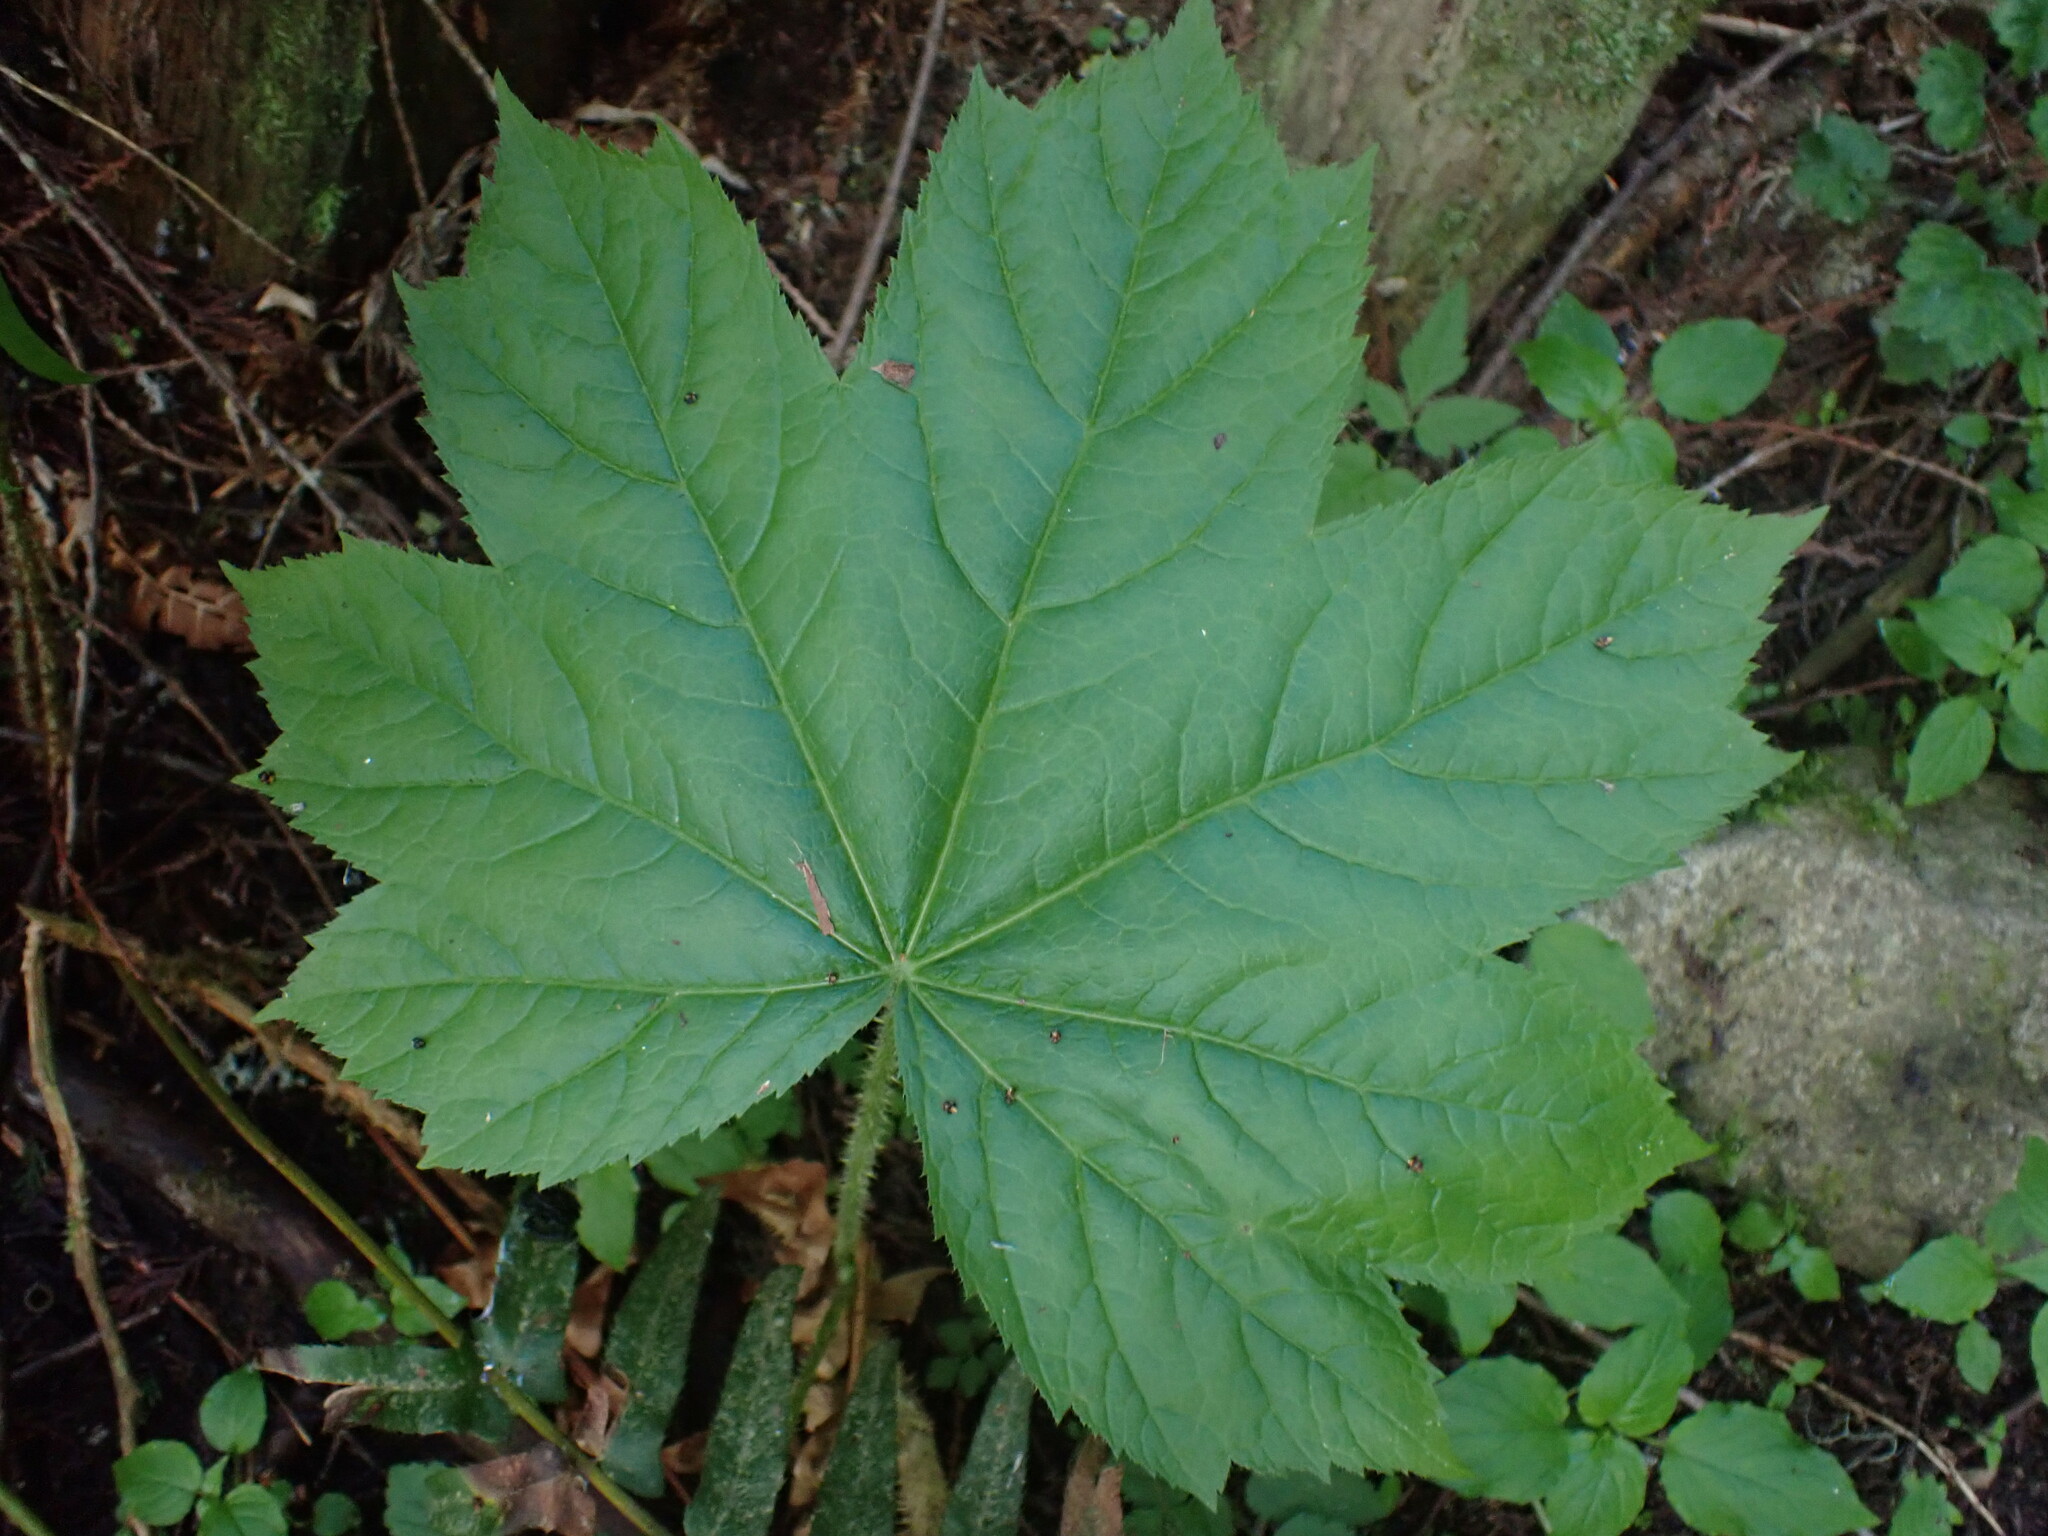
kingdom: Plantae
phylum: Tracheophyta
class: Magnoliopsida
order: Apiales
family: Araliaceae
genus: Oplopanax
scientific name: Oplopanax horridus
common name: Devil's walking-stick
